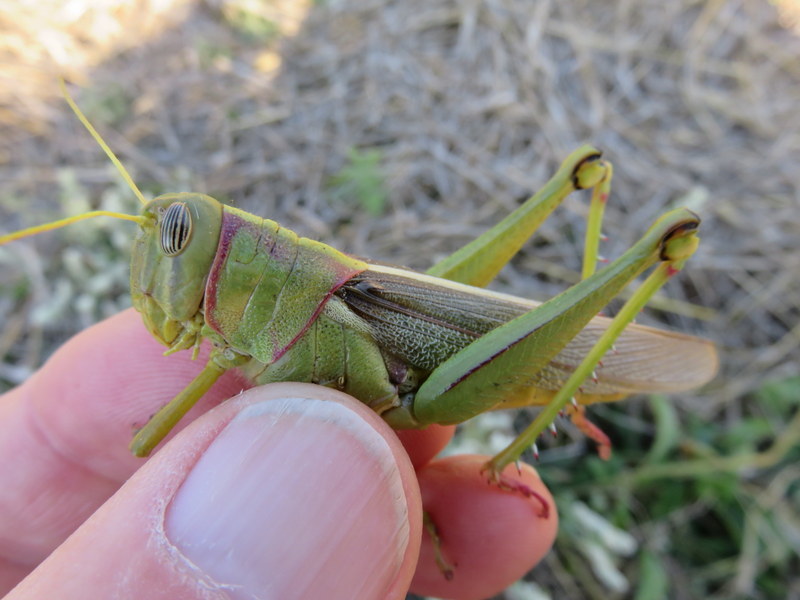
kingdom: Animalia
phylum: Arthropoda
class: Insecta
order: Orthoptera
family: Acrididae
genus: Kraussaria
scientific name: Kraussaria prasina
